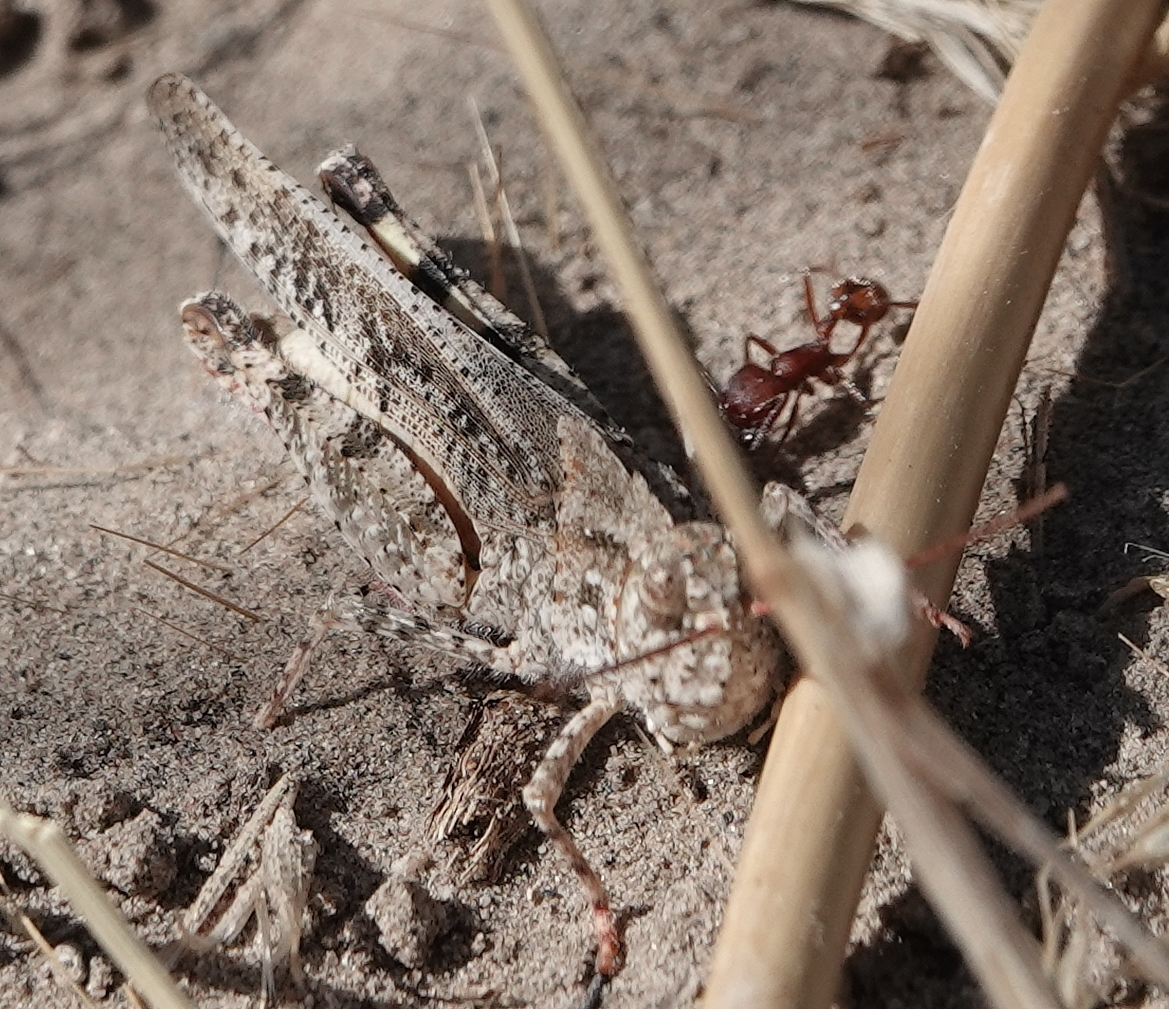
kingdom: Animalia
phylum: Arthropoda
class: Insecta
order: Orthoptera
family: Acrididae
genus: Spharagemon
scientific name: Spharagemon collare
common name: Mottled sand grasshopper
